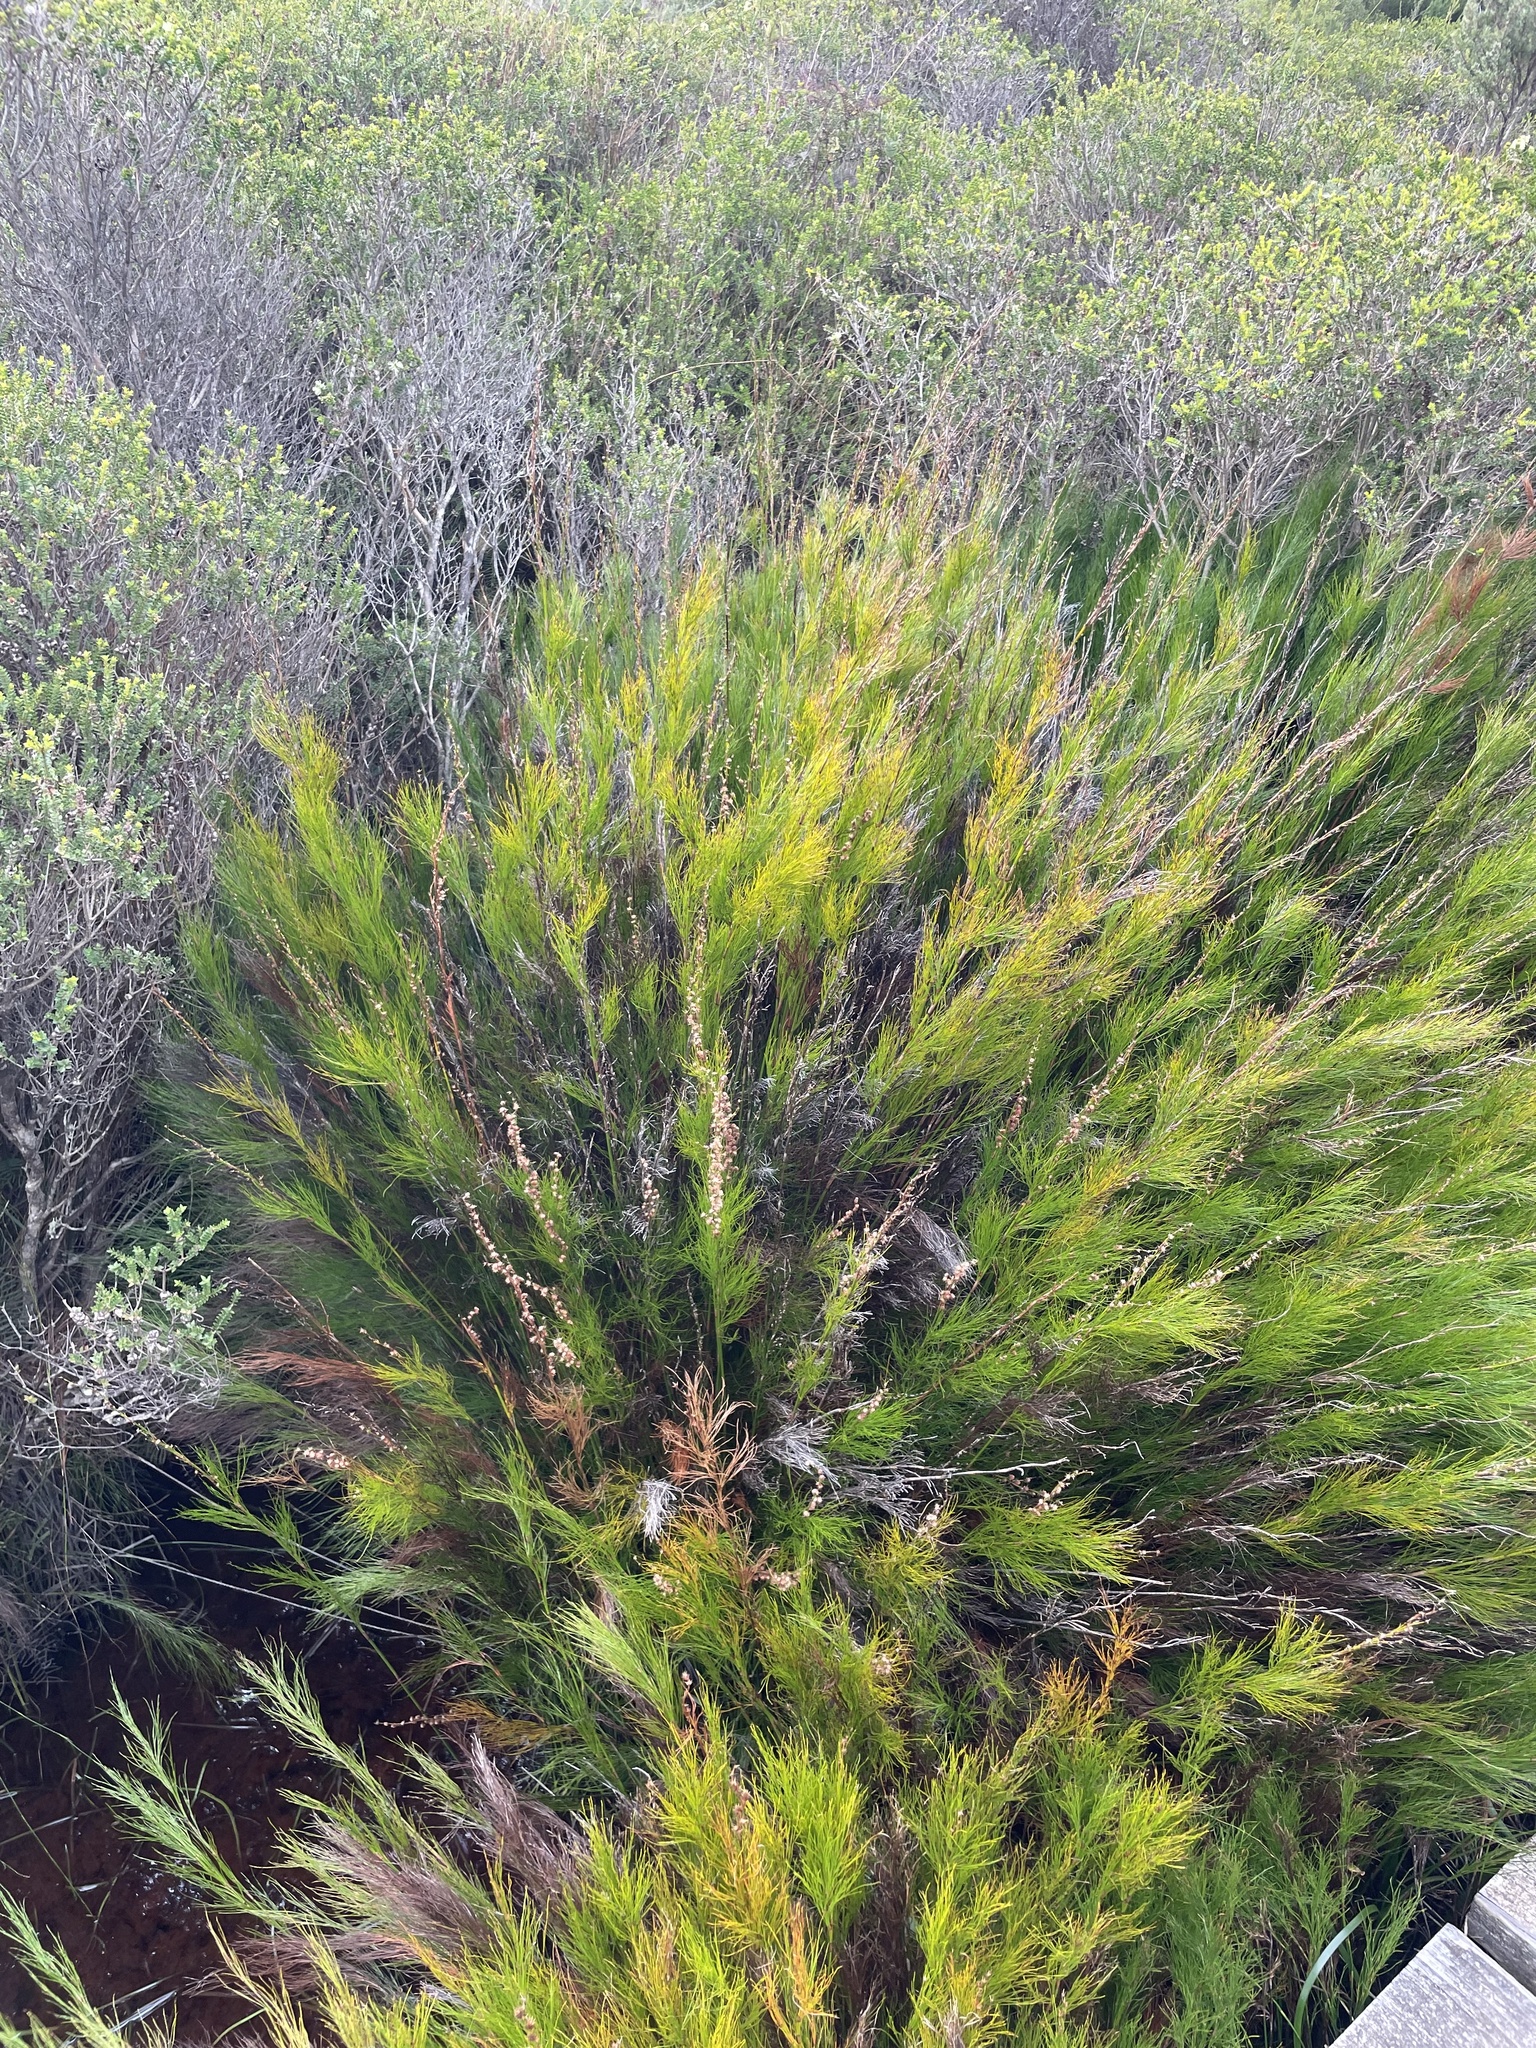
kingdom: Plantae
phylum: Tracheophyta
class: Liliopsida
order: Poales
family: Restionaceae
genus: Baloskion
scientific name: Baloskion tetraphyllum
